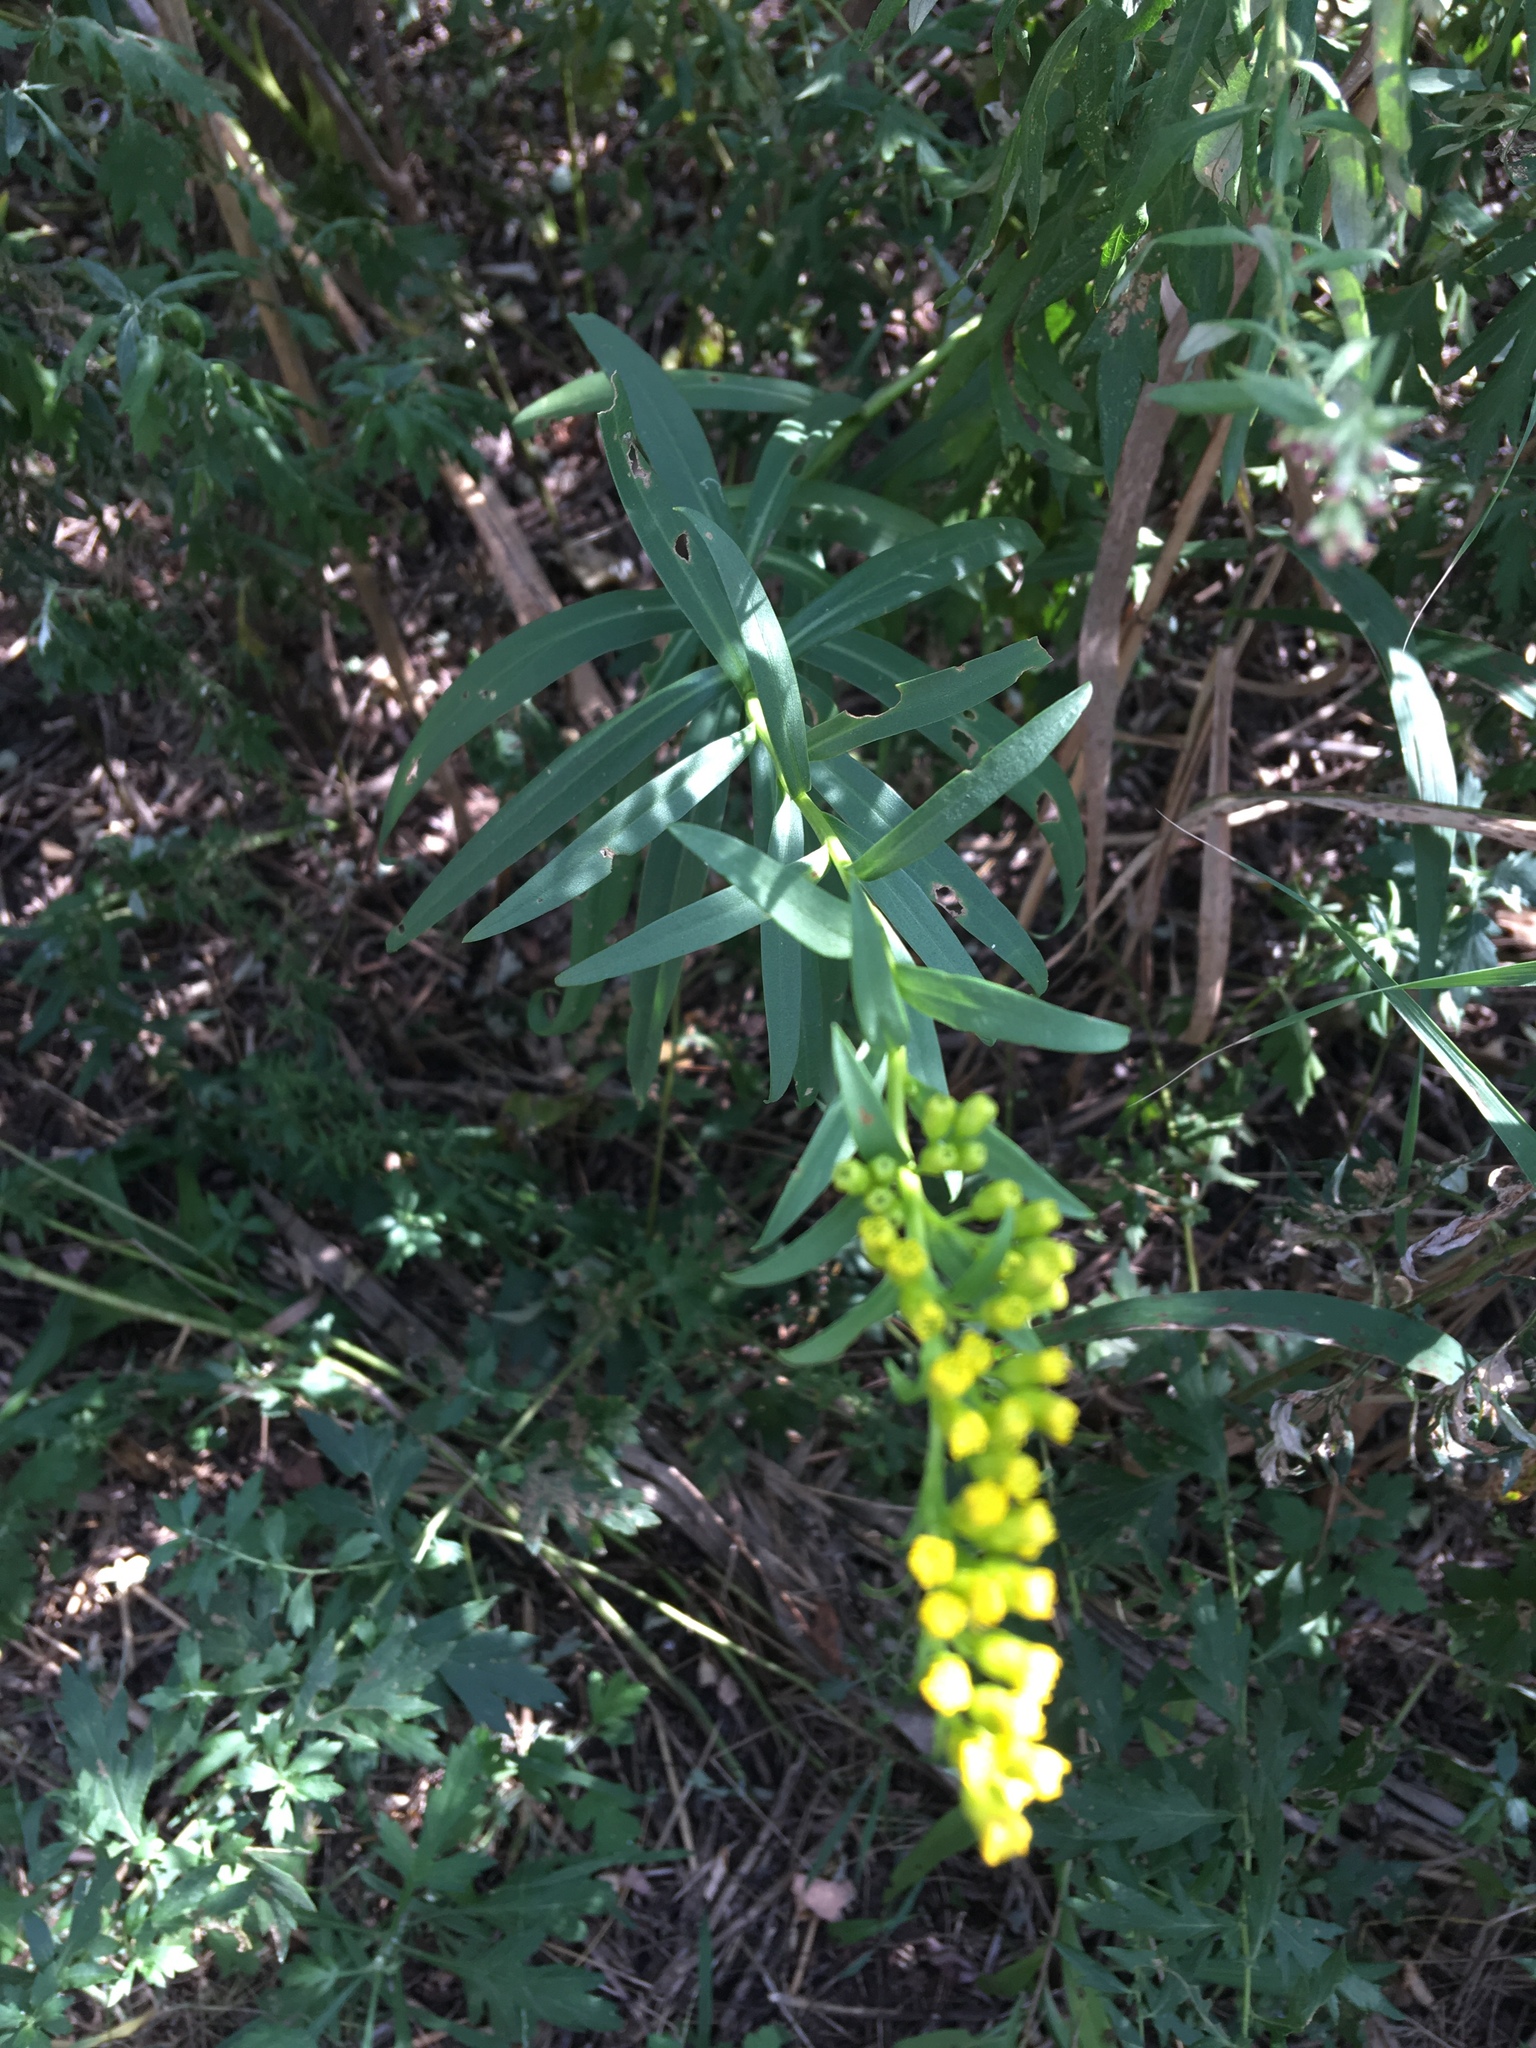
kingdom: Plantae
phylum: Tracheophyta
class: Magnoliopsida
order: Asterales
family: Asteraceae
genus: Solidago
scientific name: Solidago sempervirens
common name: Salt-marsh goldenrod
